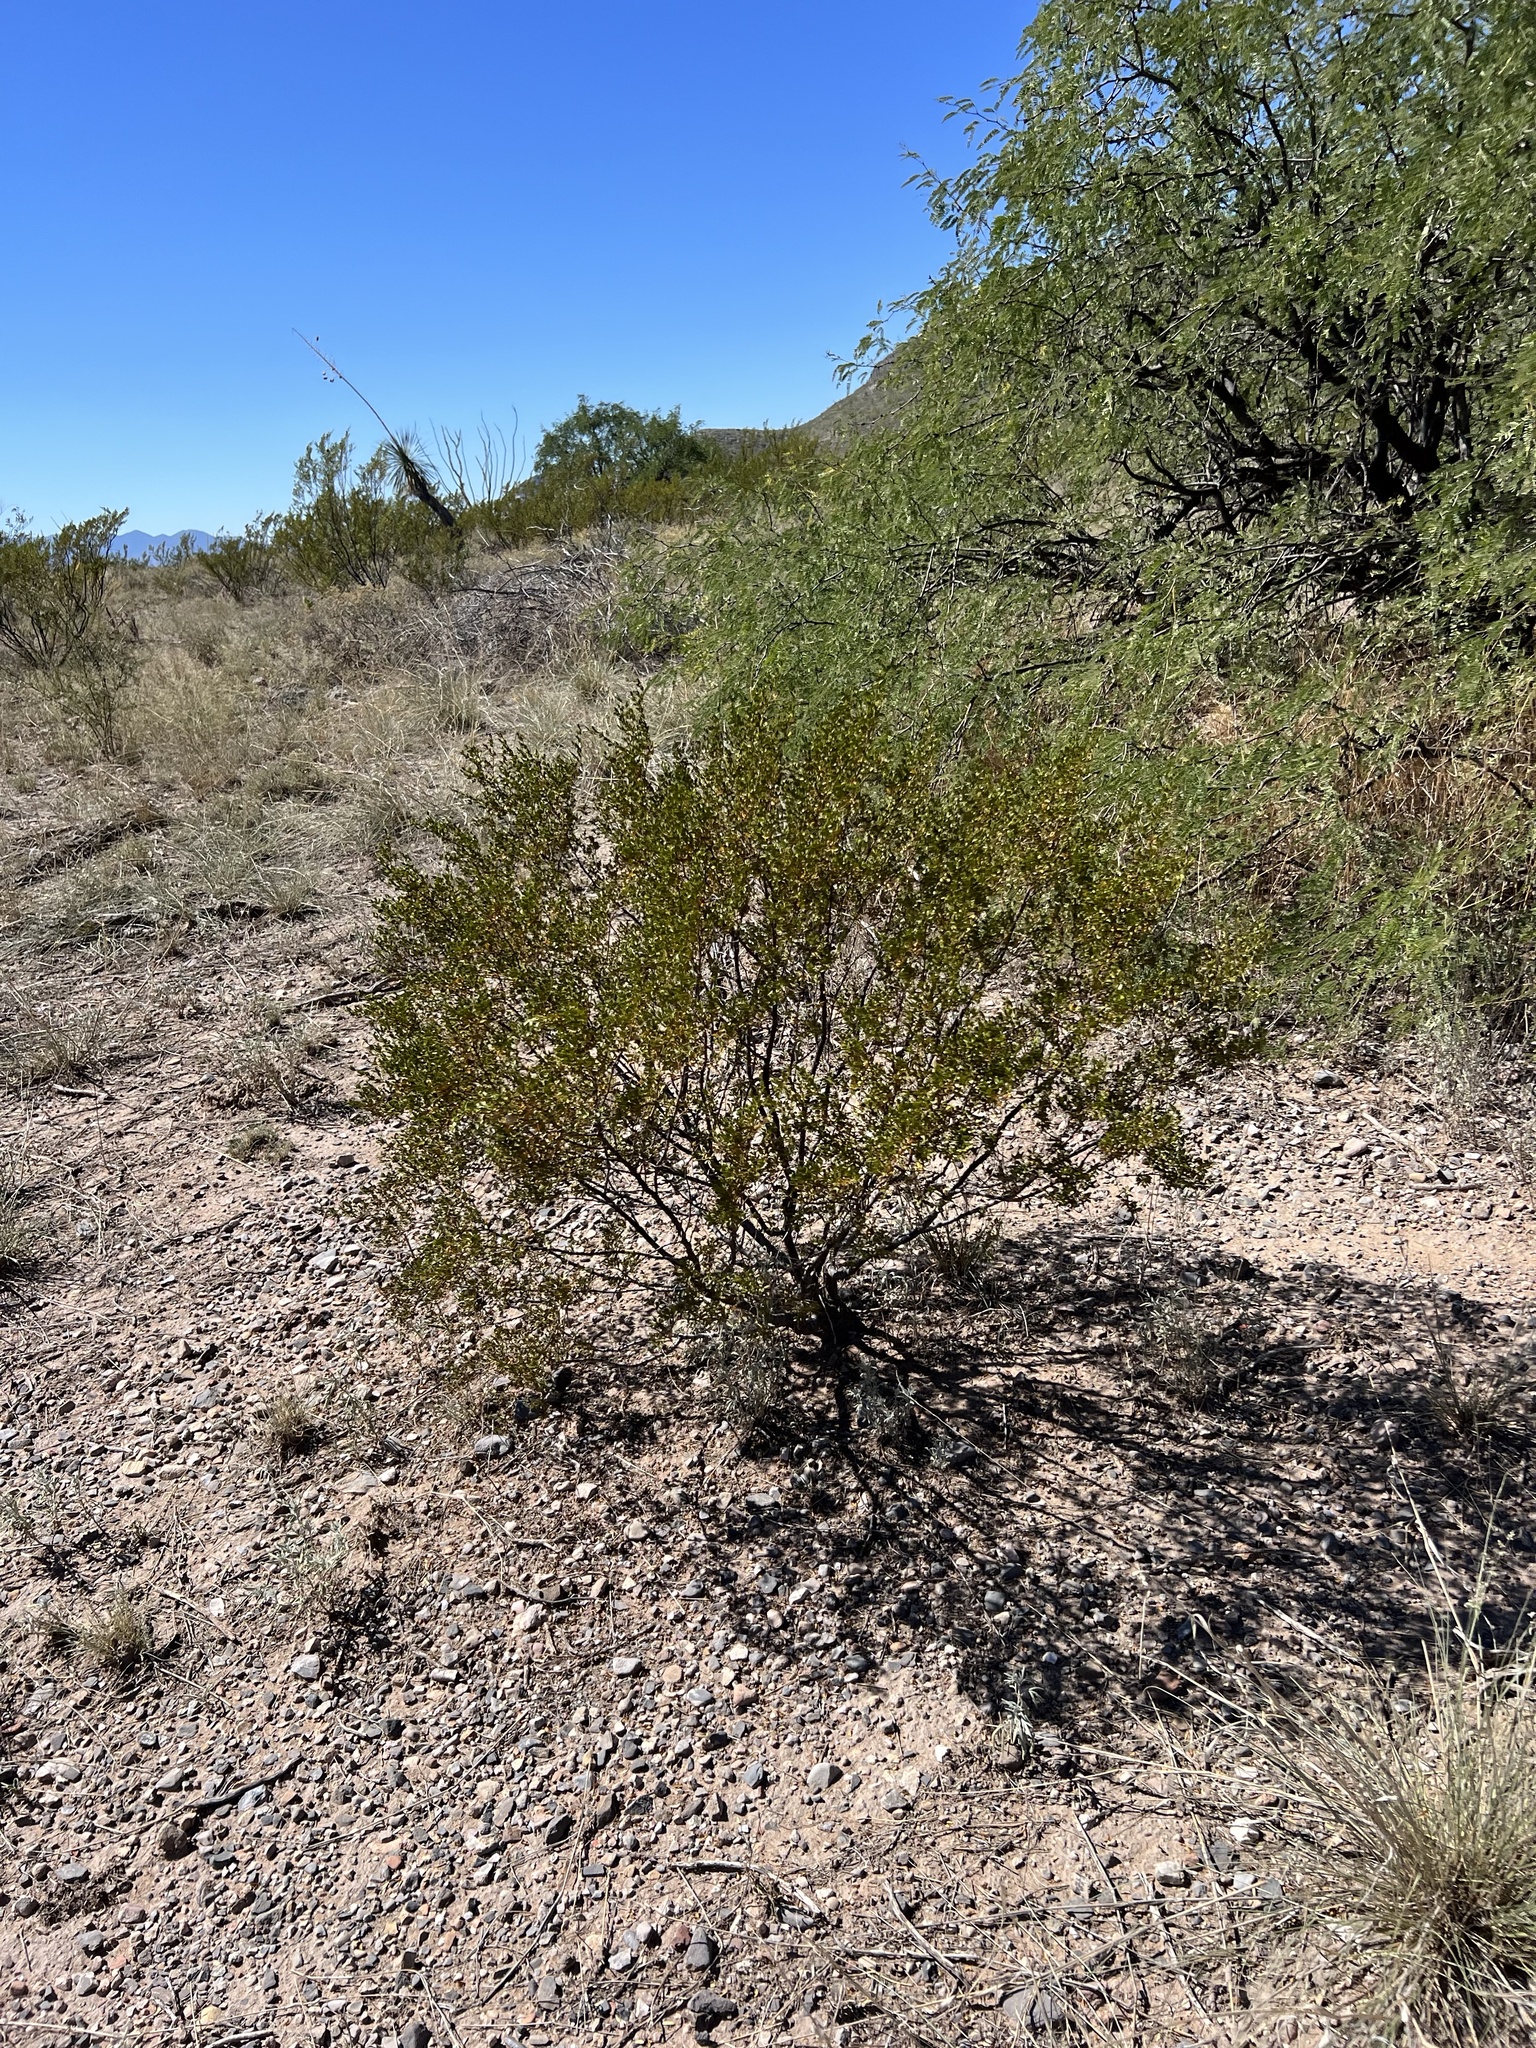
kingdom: Plantae
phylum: Tracheophyta
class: Magnoliopsida
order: Zygophyllales
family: Zygophyllaceae
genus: Larrea
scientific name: Larrea tridentata
